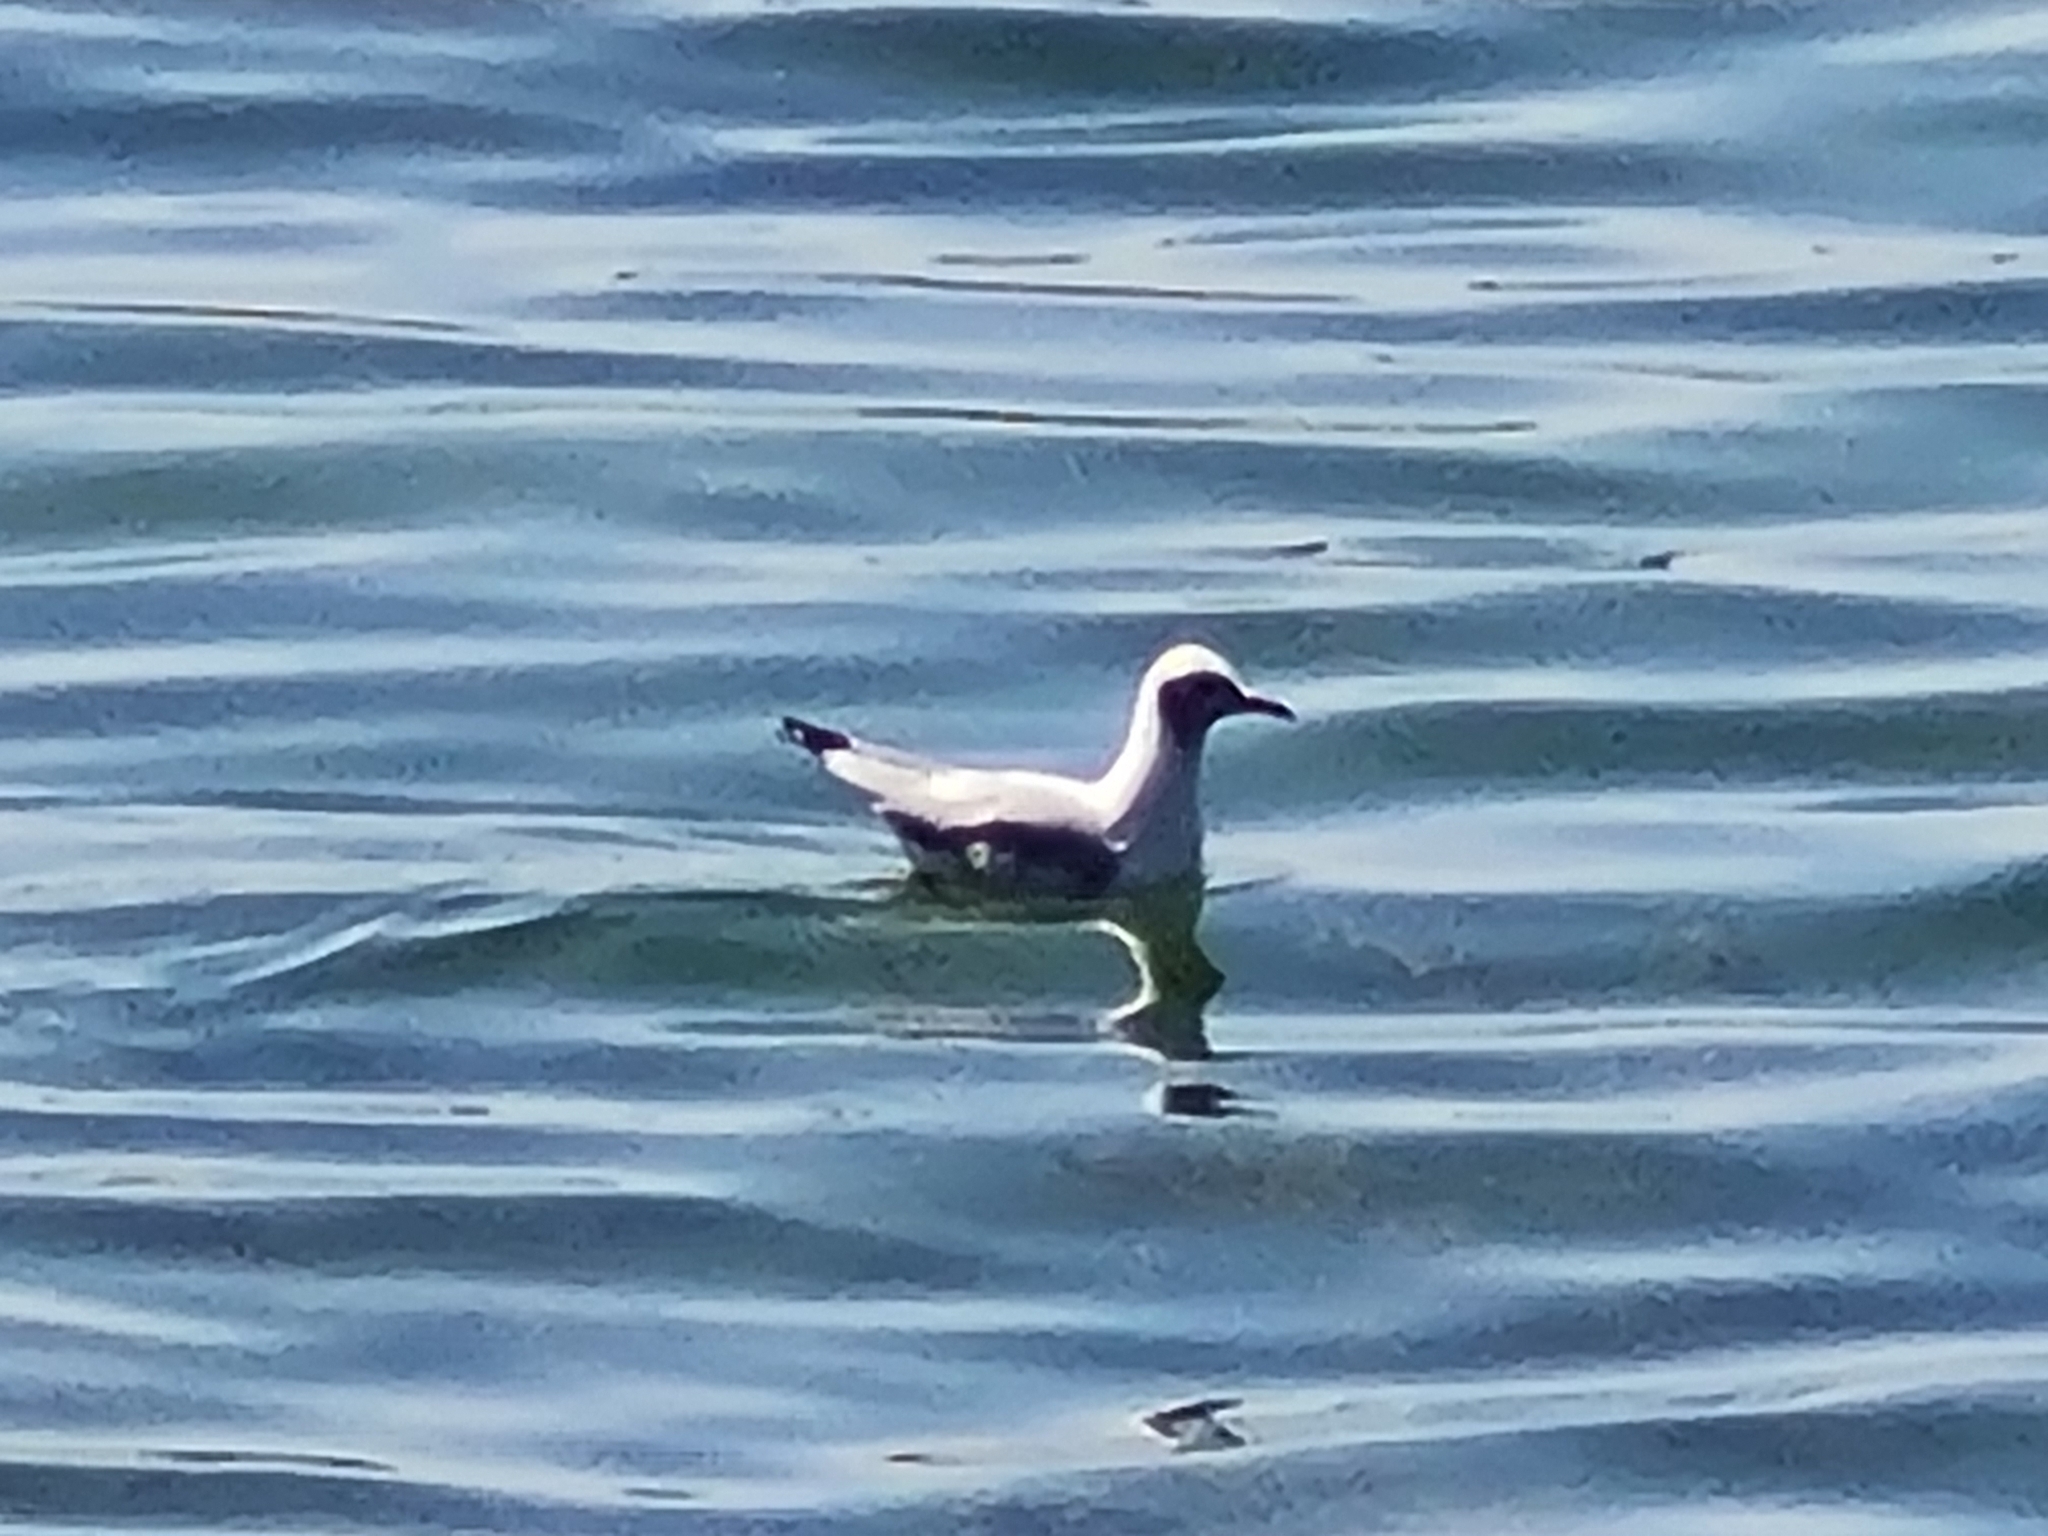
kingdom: Animalia
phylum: Chordata
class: Aves
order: Charadriiformes
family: Laridae
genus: Chroicocephalus
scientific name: Chroicocephalus ridibundus
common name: Black-headed gull
